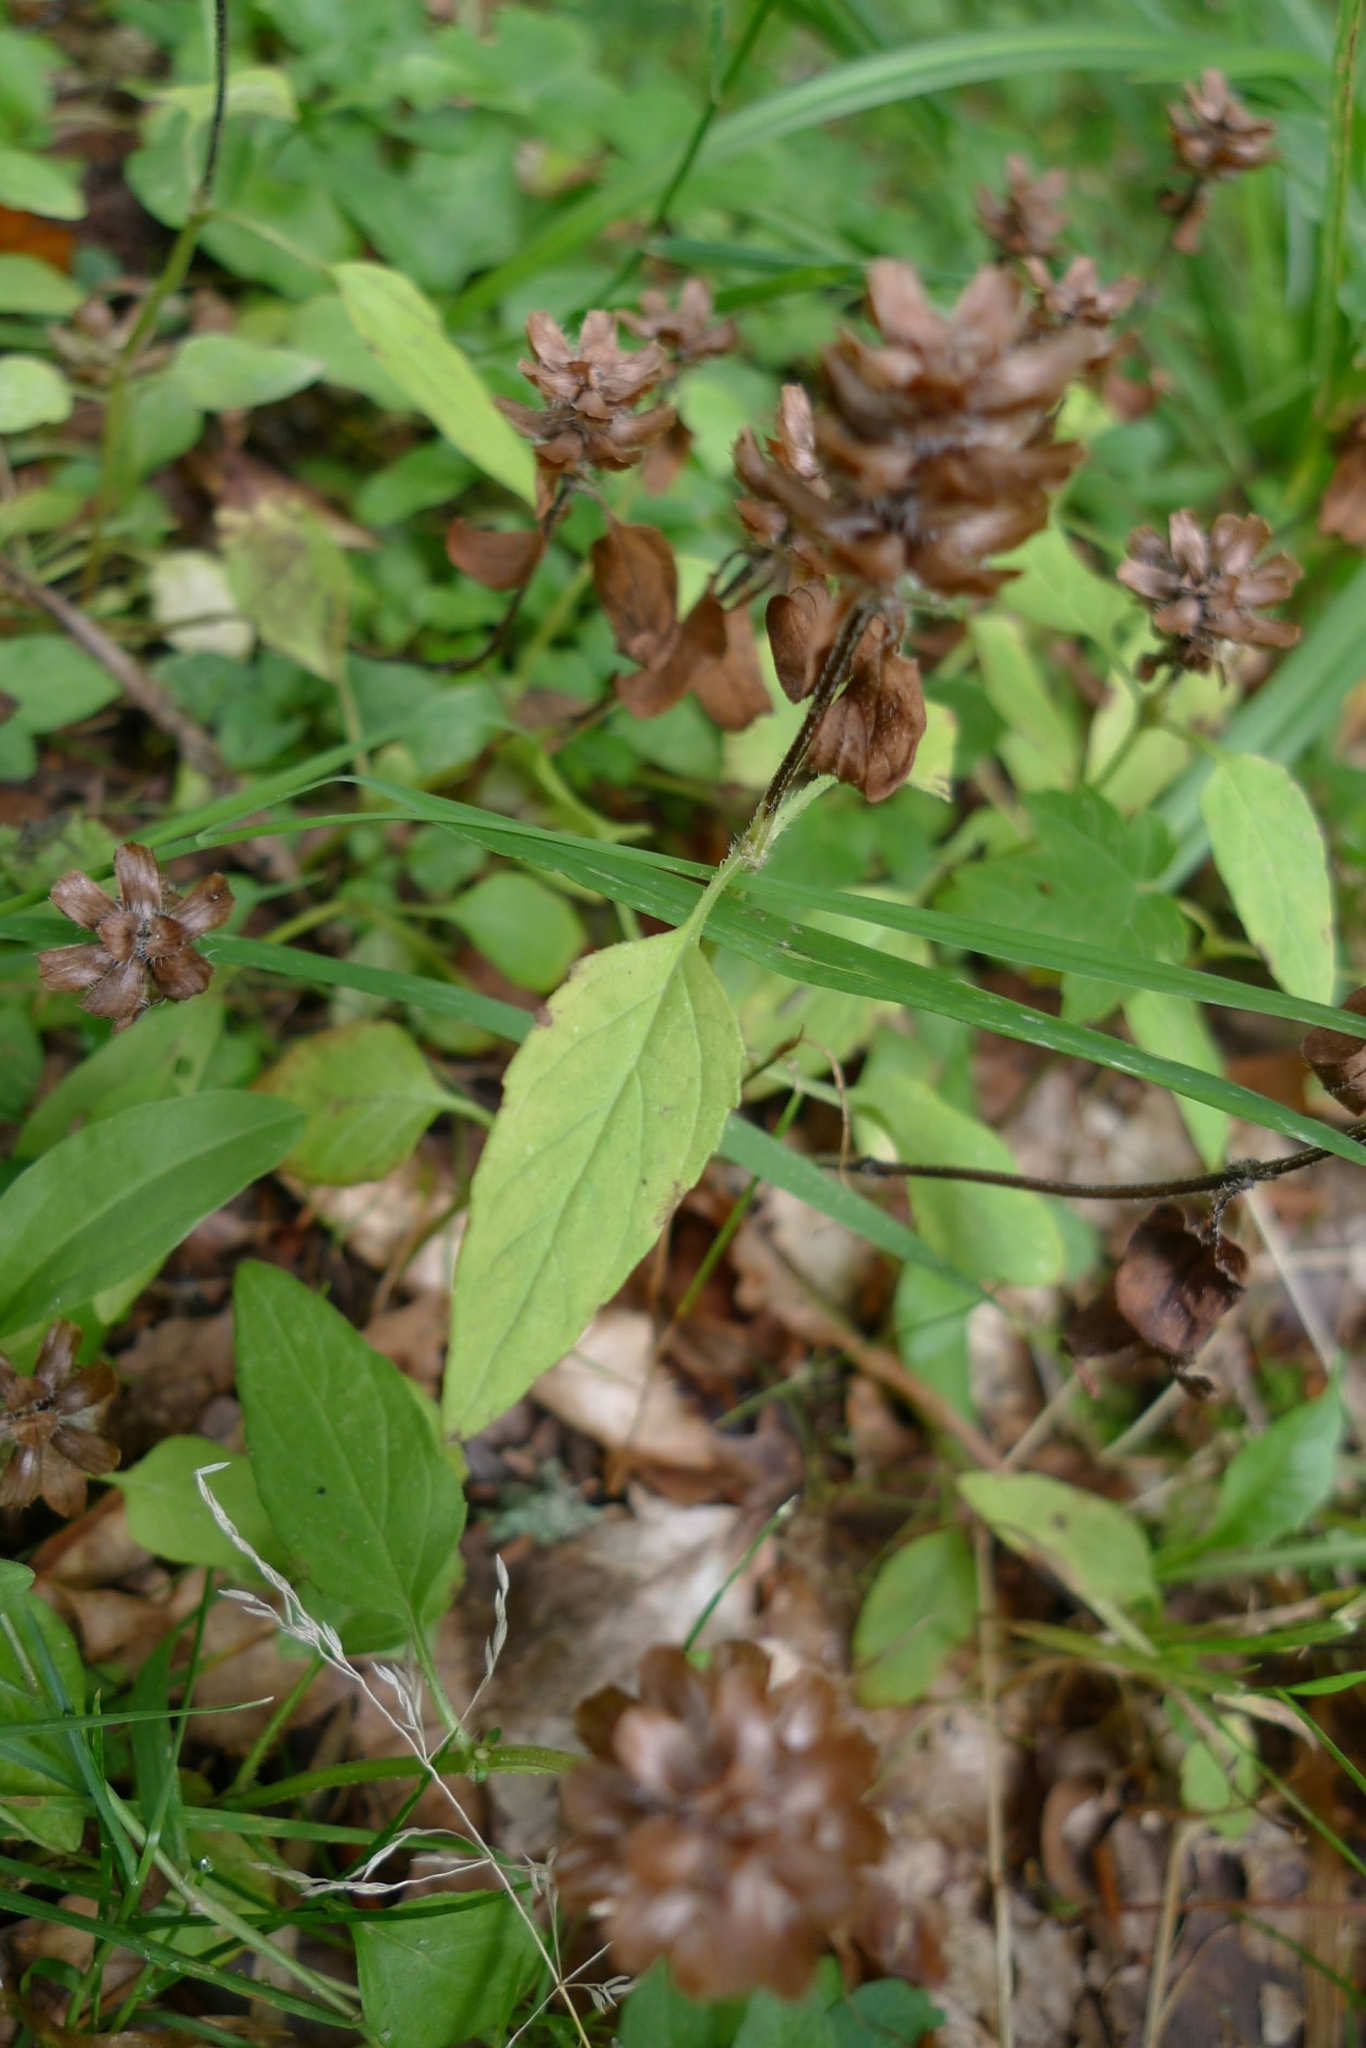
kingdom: Plantae
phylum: Tracheophyta
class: Magnoliopsida
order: Lamiales
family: Lamiaceae
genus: Prunella
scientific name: Prunella vulgaris
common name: Heal-all
